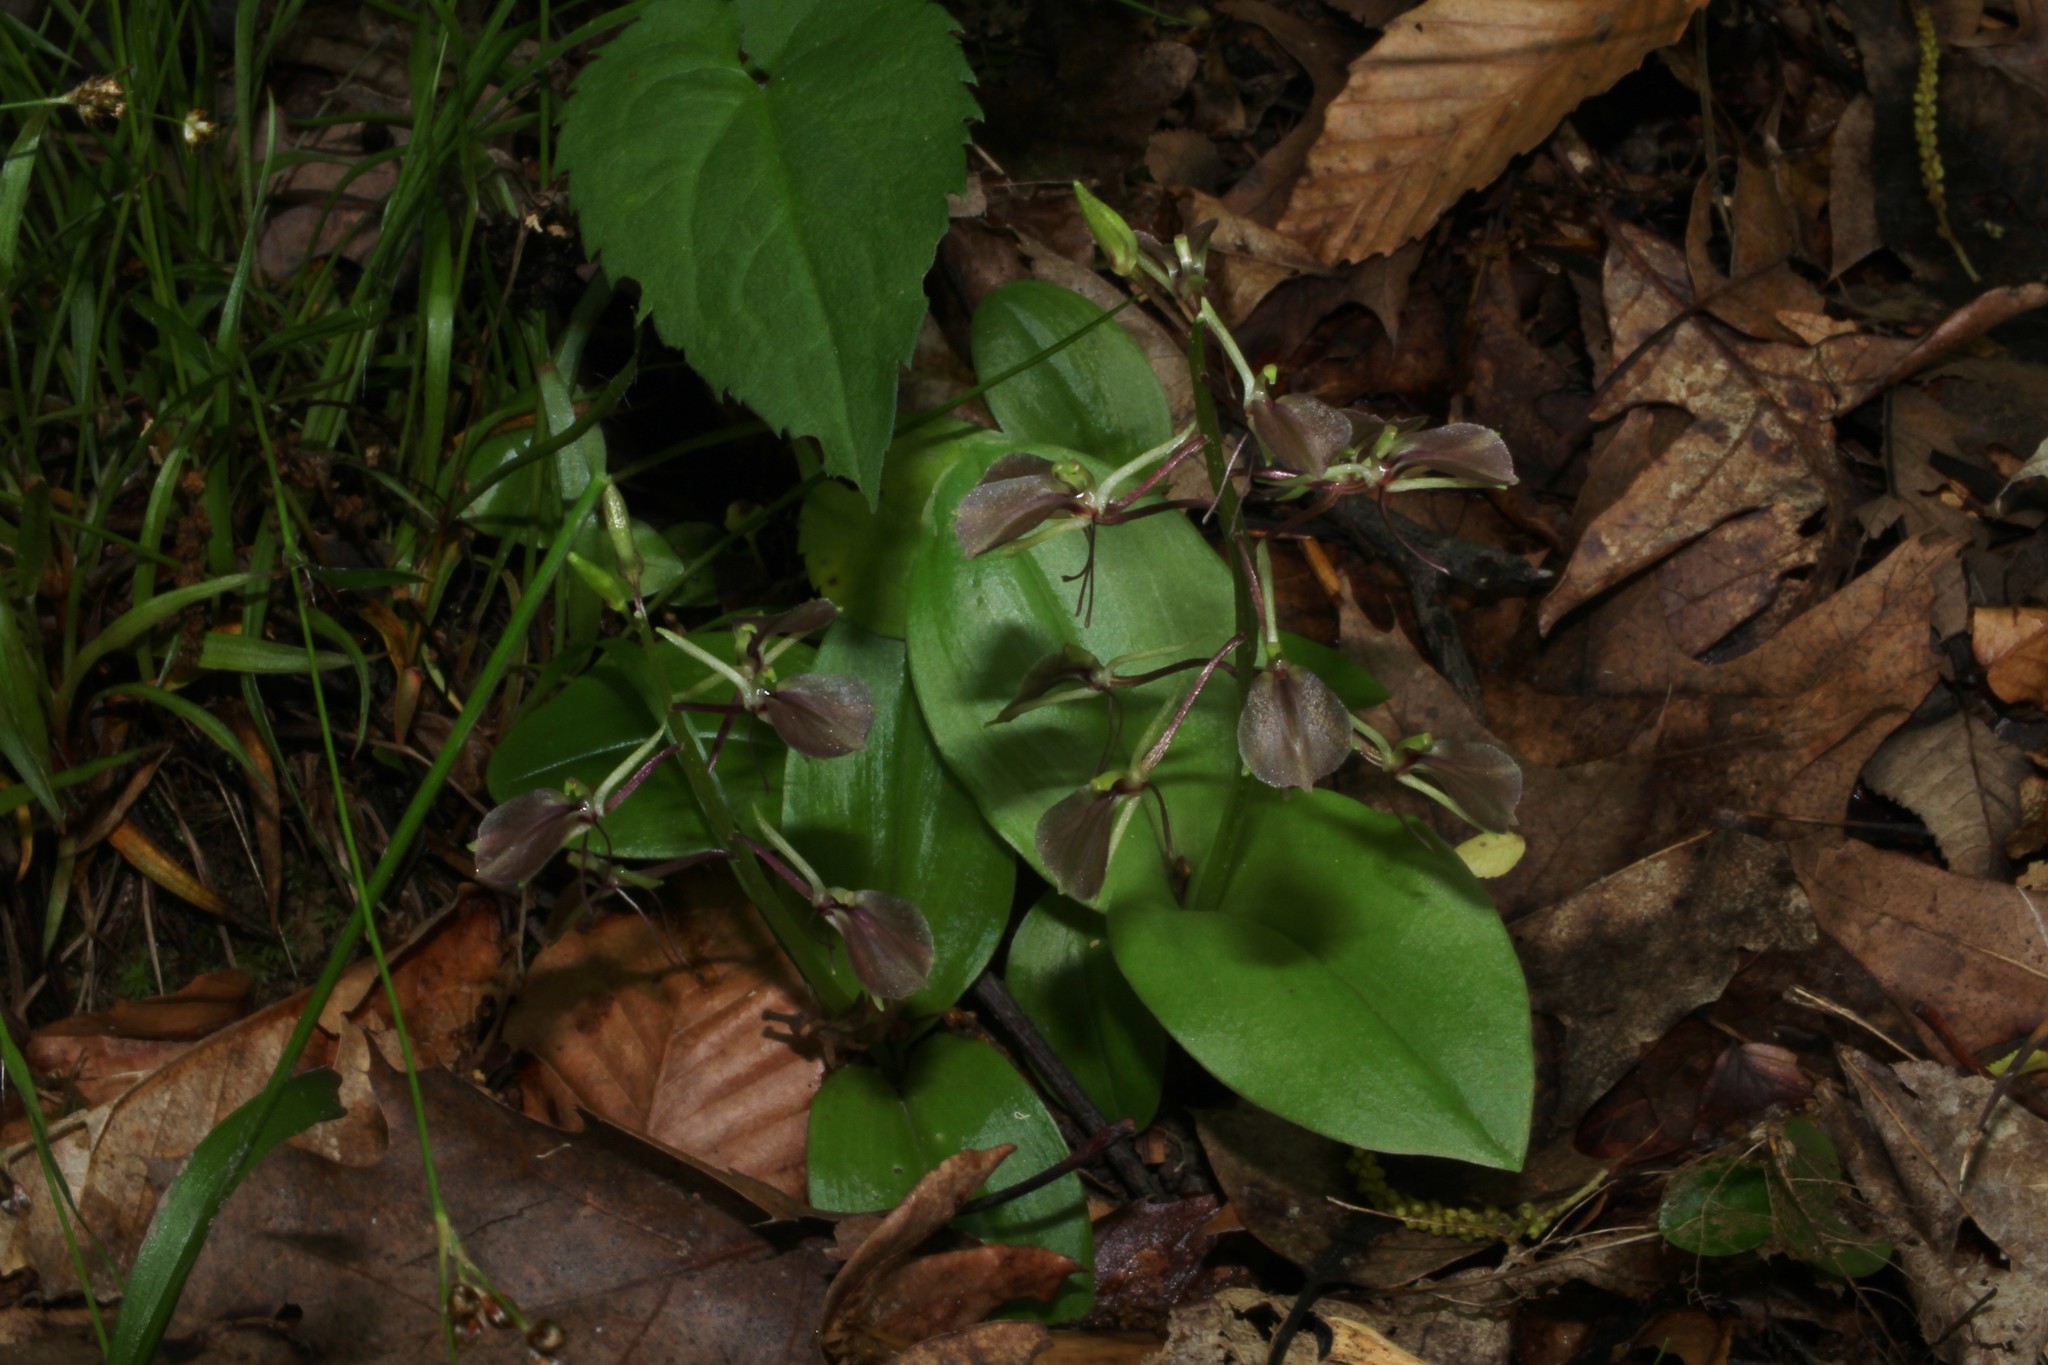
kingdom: Plantae
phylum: Tracheophyta
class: Liliopsida
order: Asparagales
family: Orchidaceae
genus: Liparis
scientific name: Liparis liliifolia
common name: Brown wide-lip orchid
